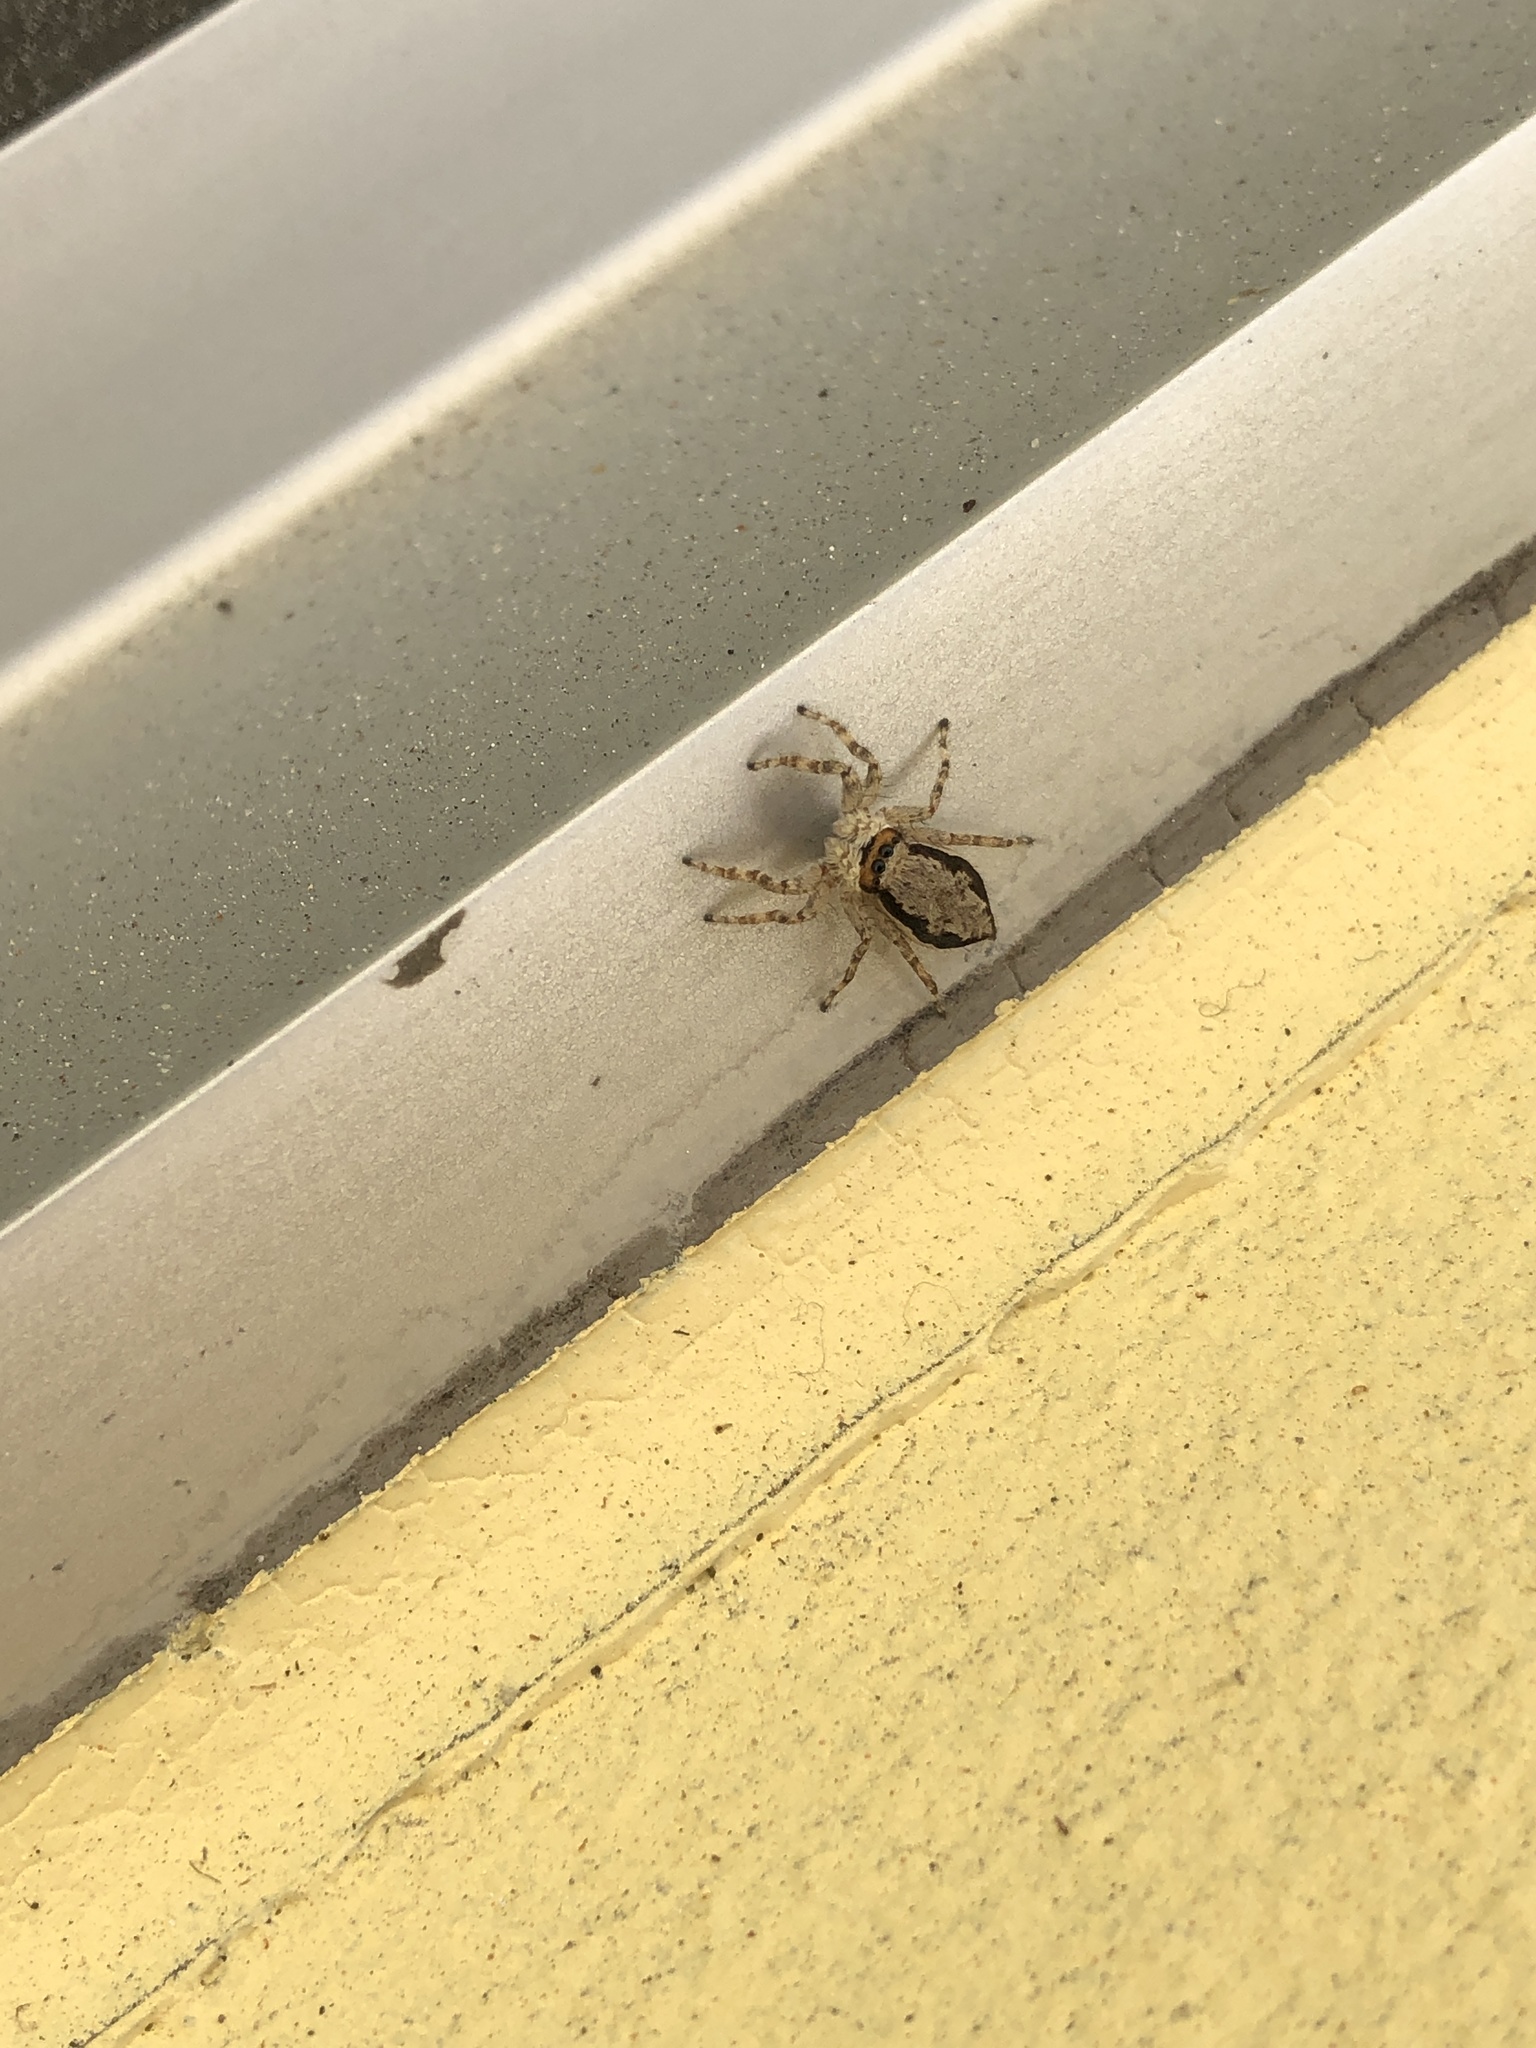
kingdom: Animalia
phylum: Arthropoda
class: Arachnida
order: Araneae
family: Salticidae
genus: Menemerus
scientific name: Menemerus bivittatus
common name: Gray wall jumper
